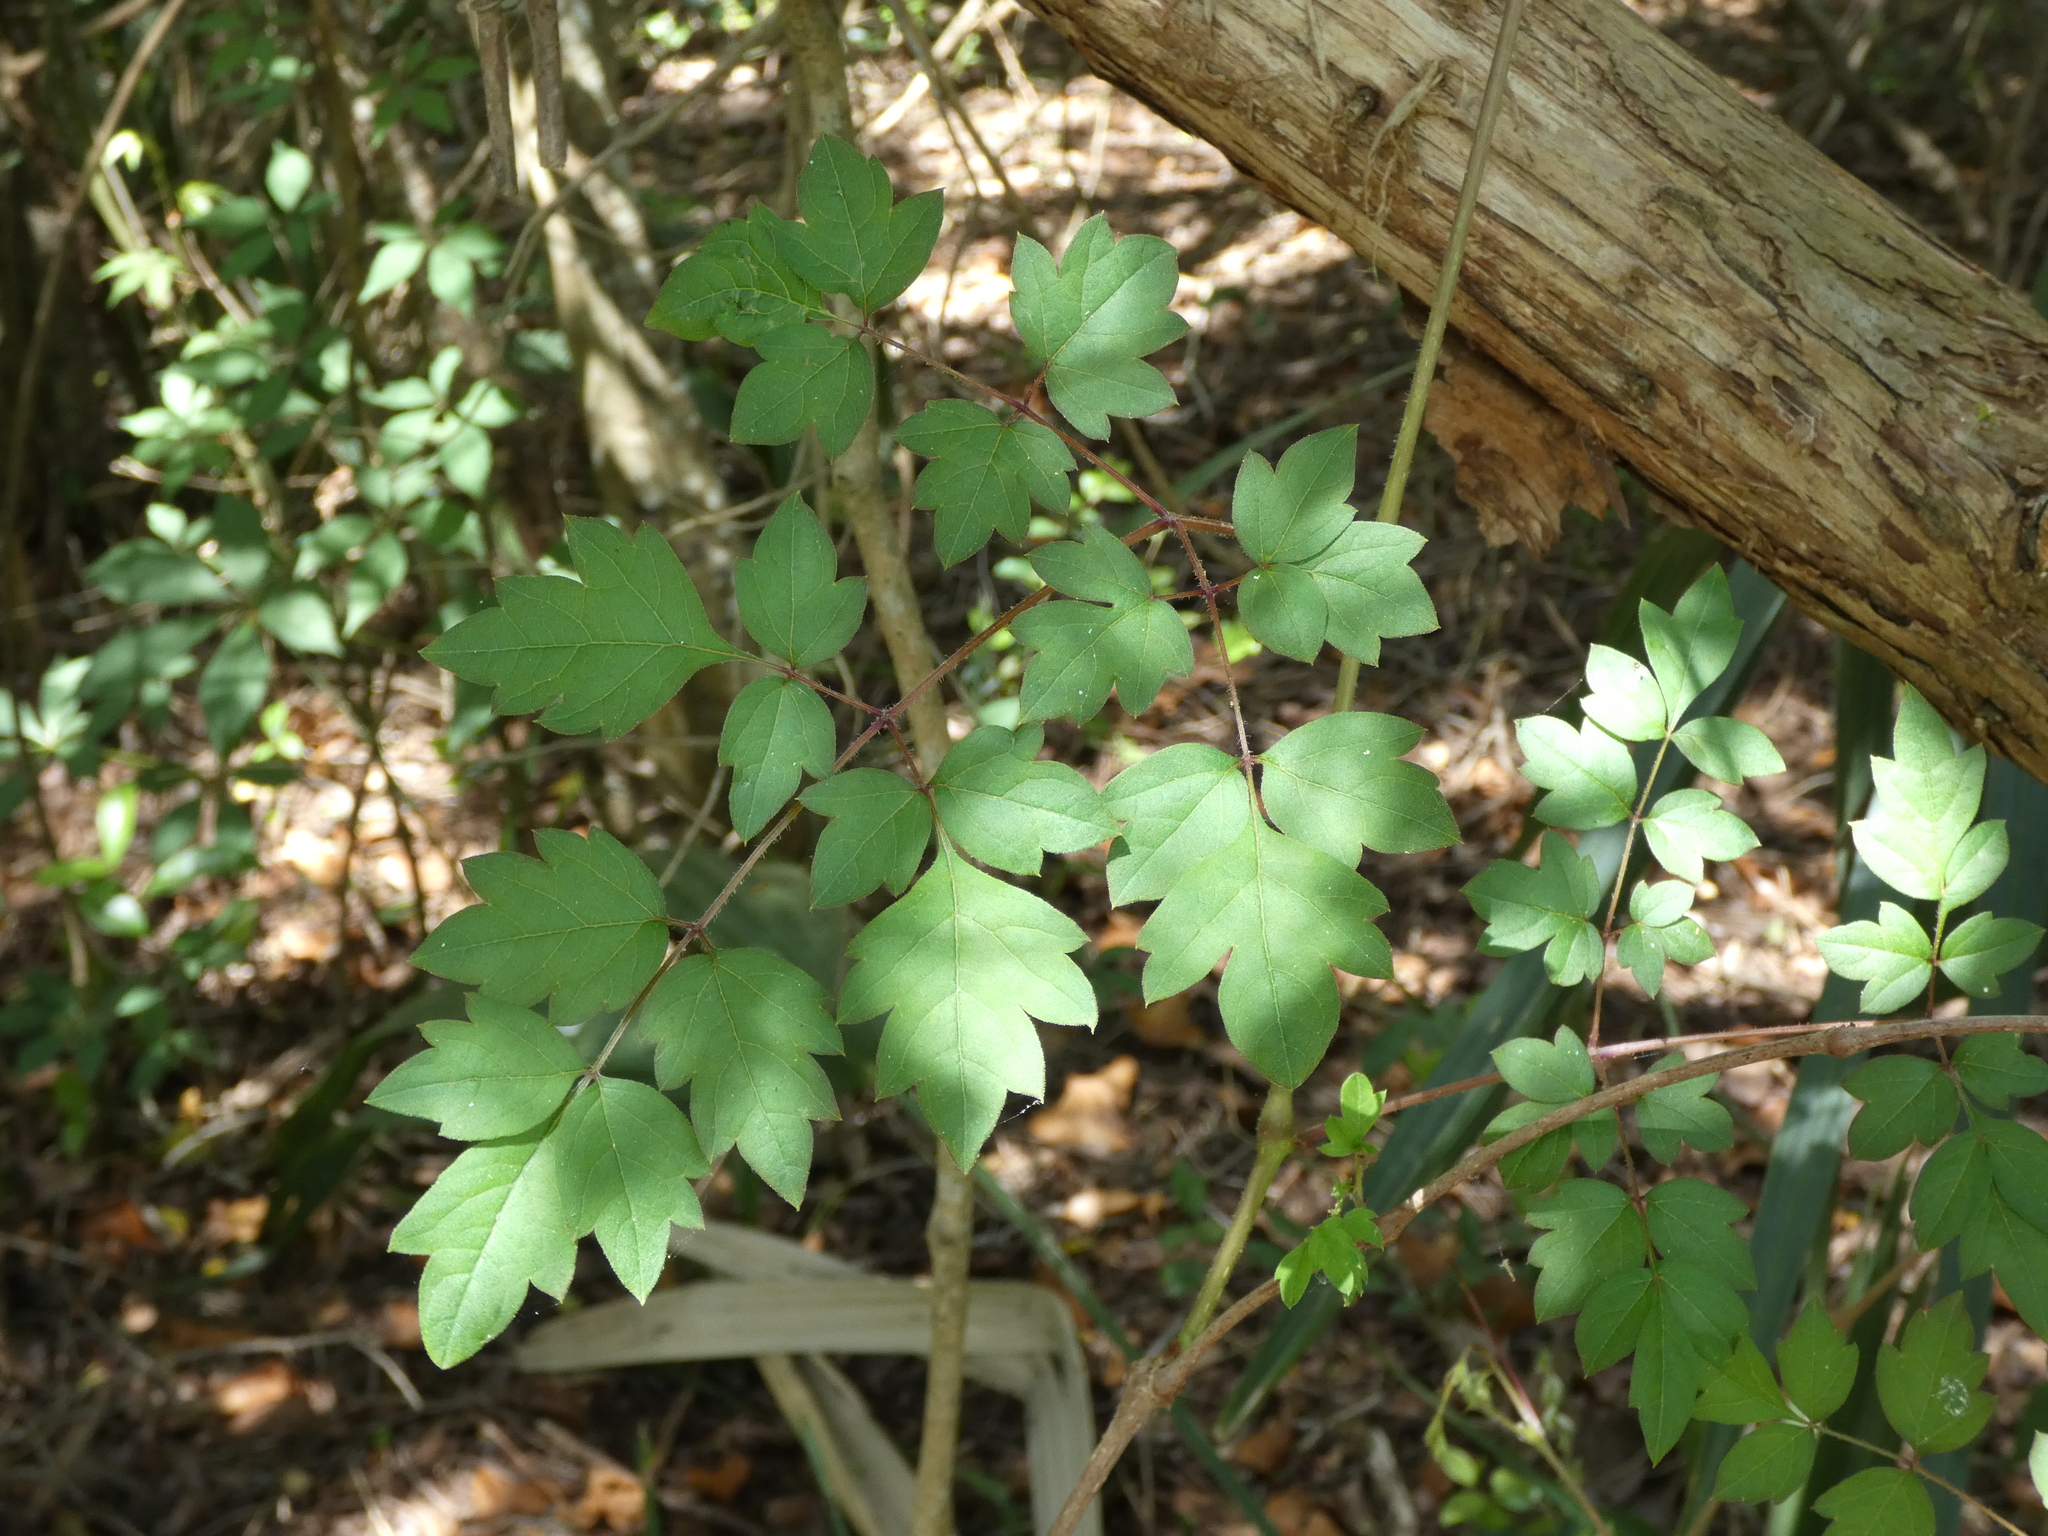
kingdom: Plantae
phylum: Tracheophyta
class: Magnoliopsida
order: Vitales
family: Vitaceae
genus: Nekemias
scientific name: Nekemias arborea
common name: Peppervine
